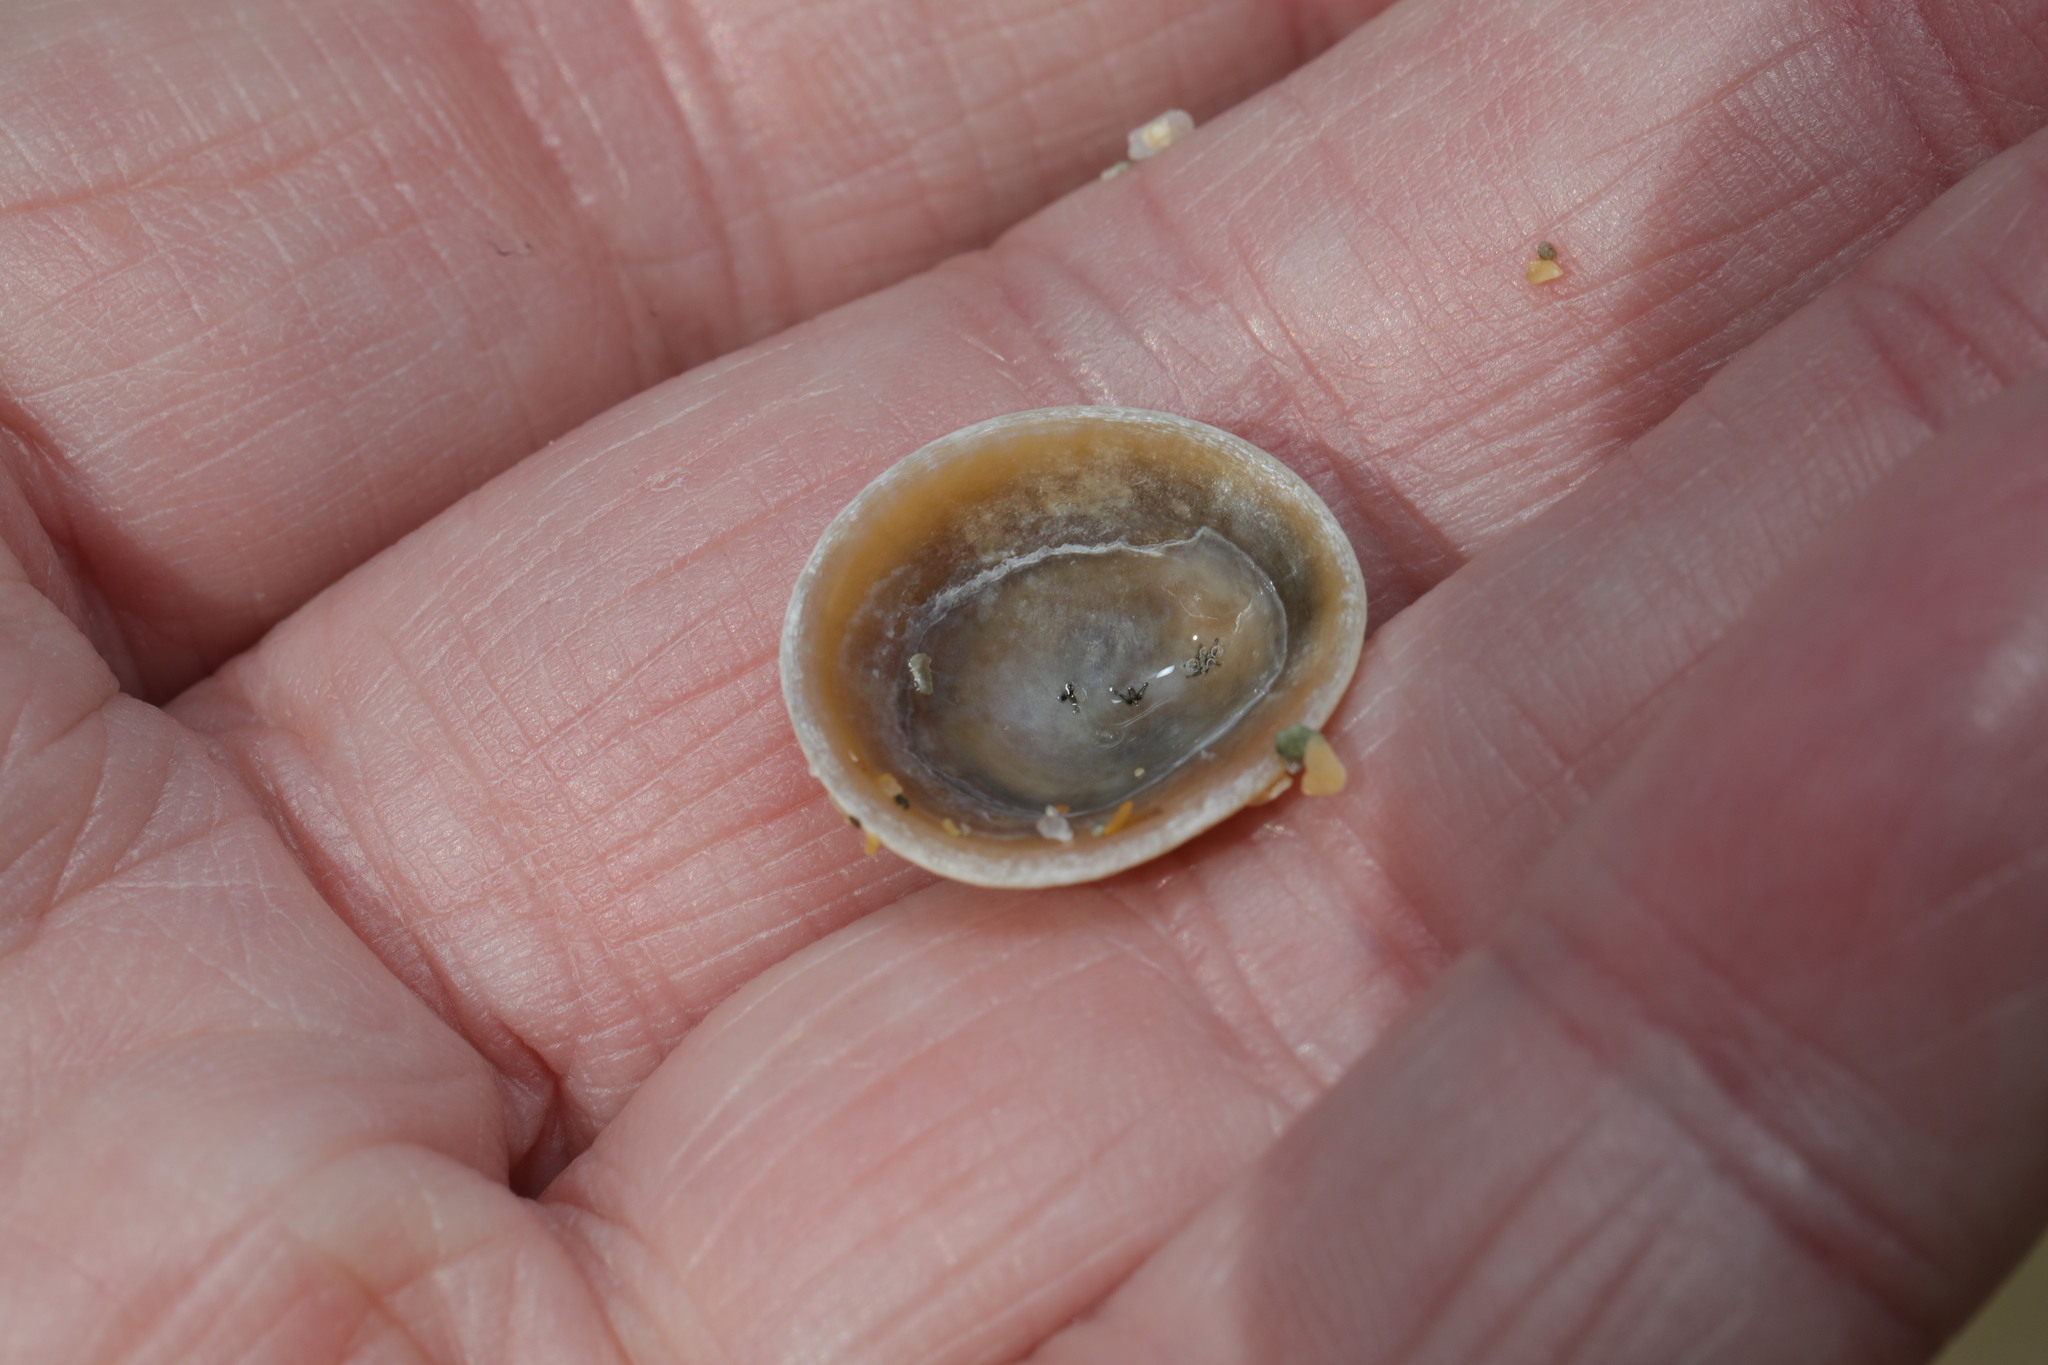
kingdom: Animalia
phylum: Mollusca
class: Gastropoda
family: Patellidae
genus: Patella
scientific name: Patella pellucida
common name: Blue-rayed limpet
